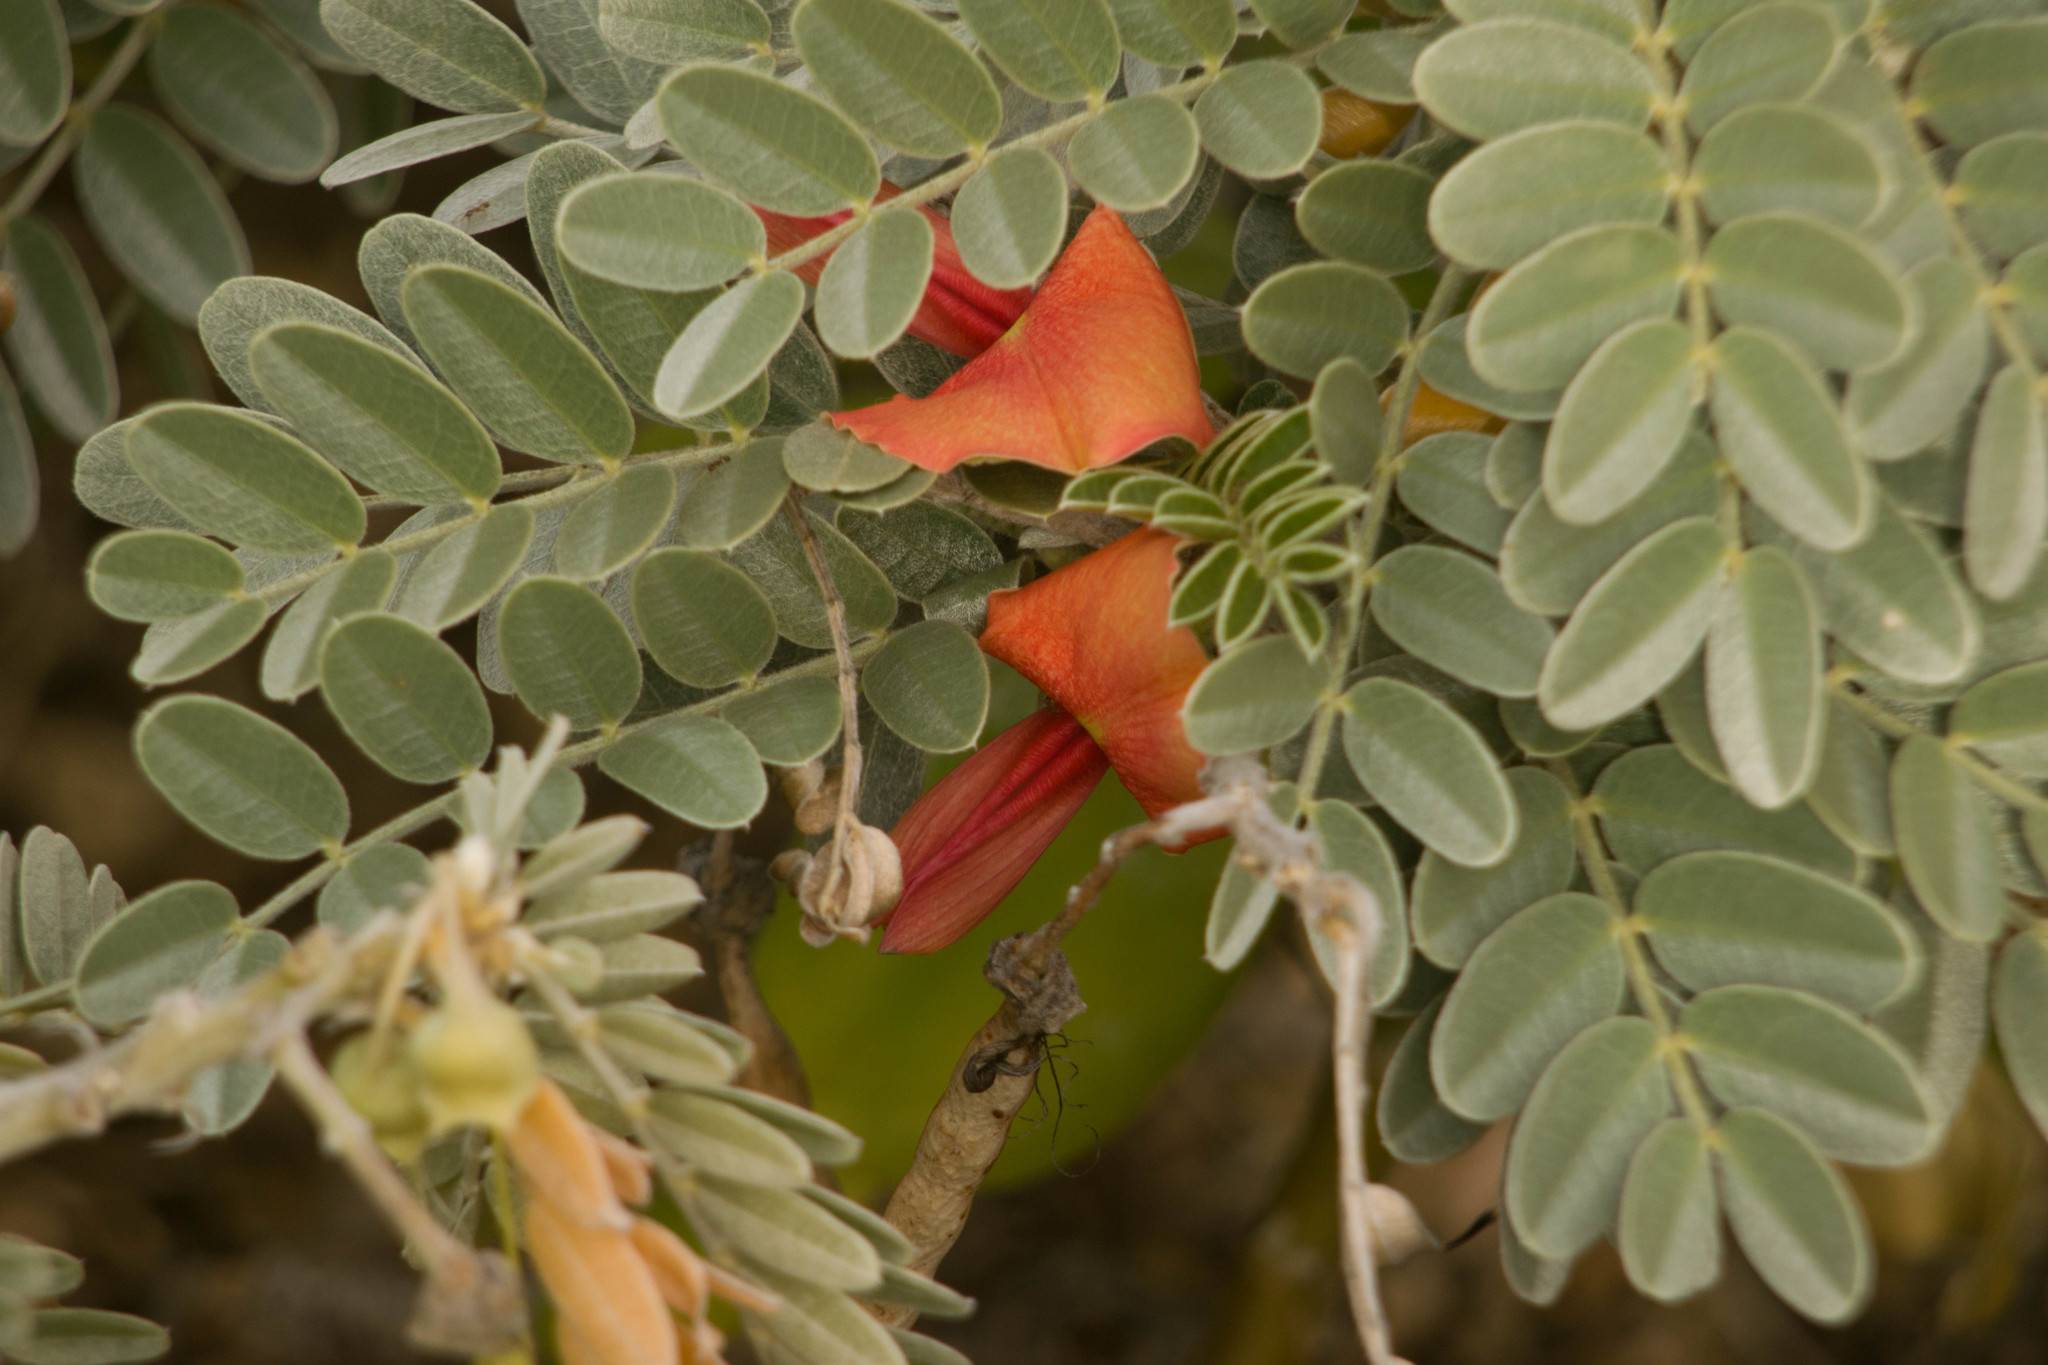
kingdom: Plantae
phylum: Tracheophyta
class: Magnoliopsida
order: Fabales
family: Fabaceae
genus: Sesbania
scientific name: Sesbania tomentosa
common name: `ohai
